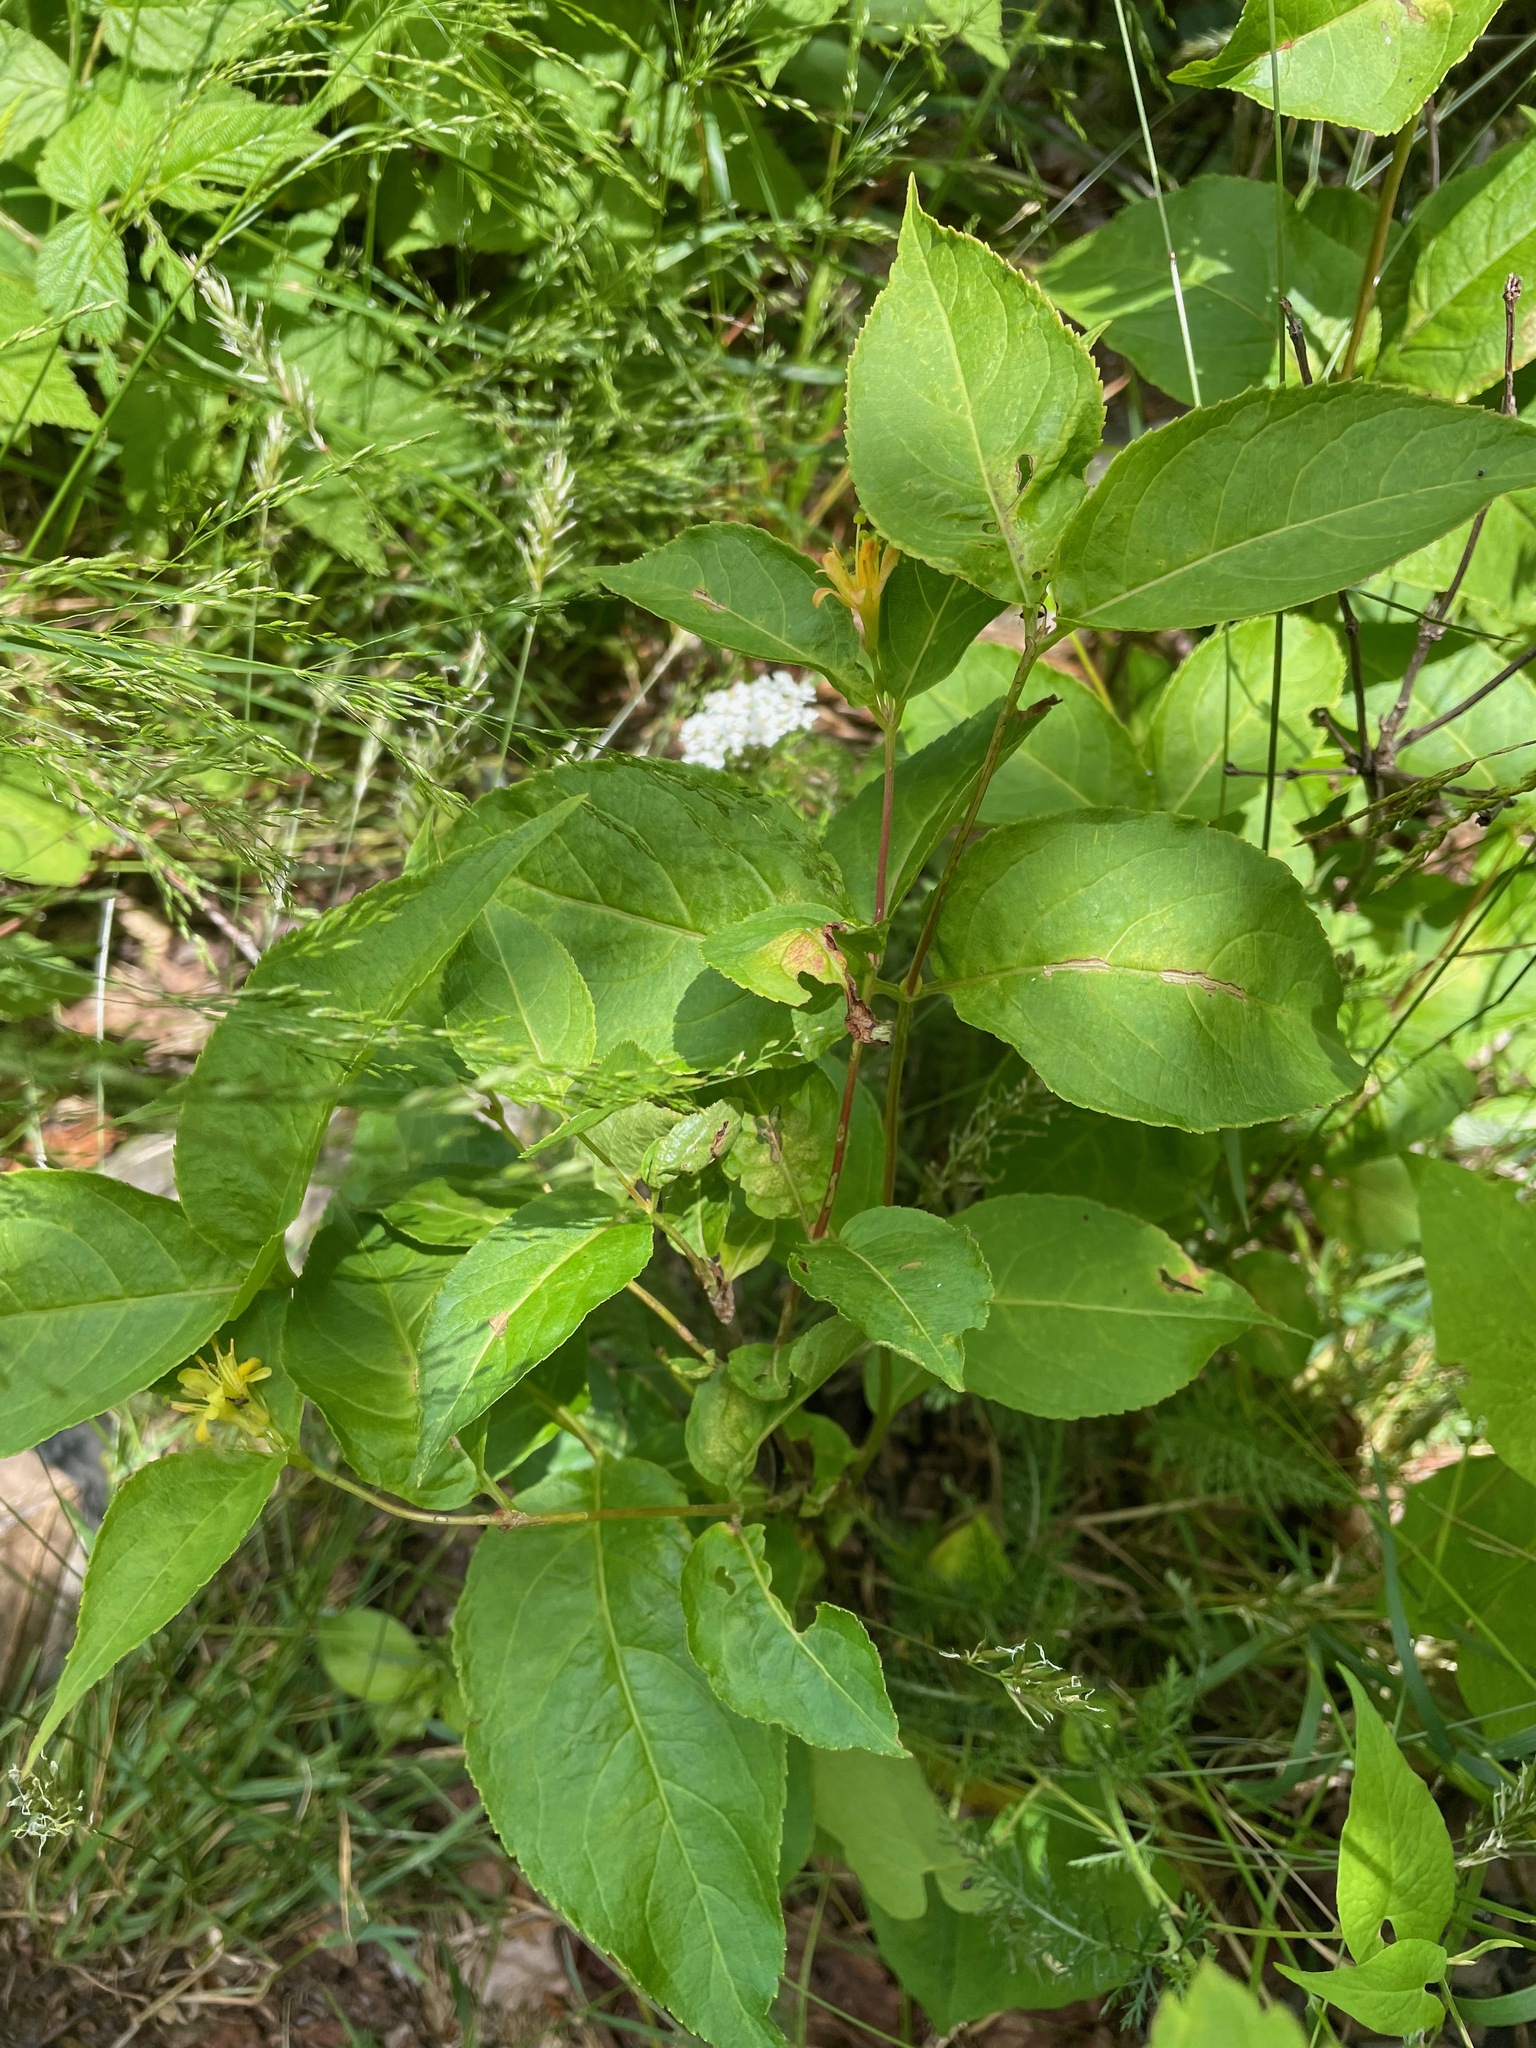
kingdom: Plantae
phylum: Tracheophyta
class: Magnoliopsida
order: Dipsacales
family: Caprifoliaceae
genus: Diervilla
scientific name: Diervilla lonicera
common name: Bush-honeysuckle
